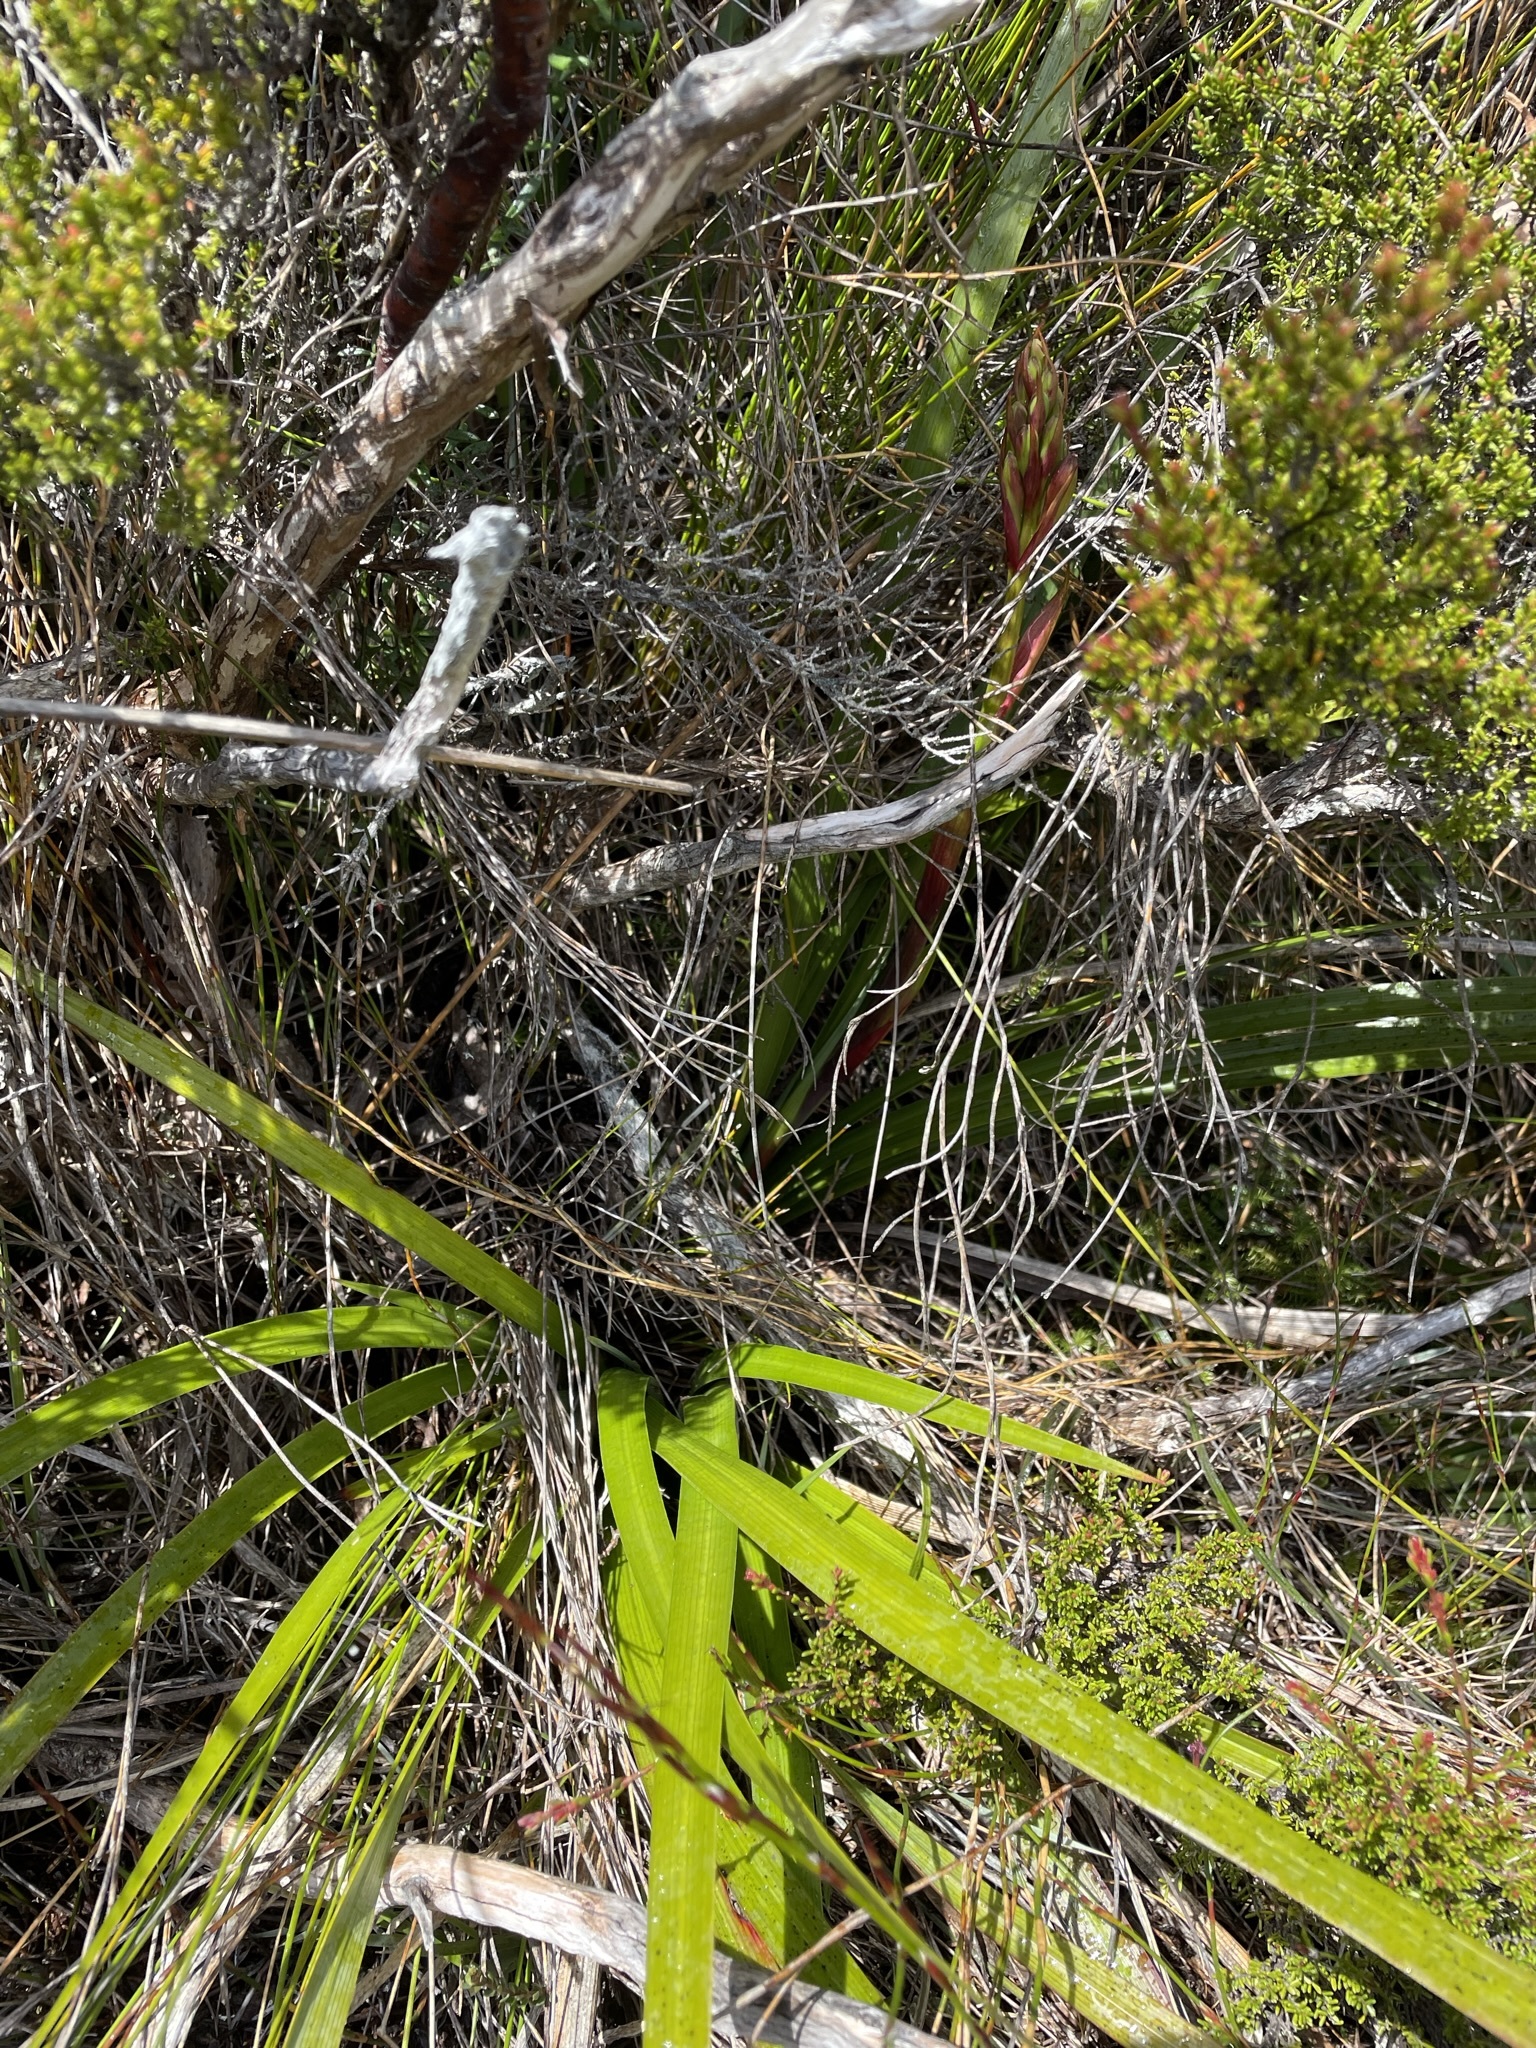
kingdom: Plantae
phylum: Tracheophyta
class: Liliopsida
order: Asparagales
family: Blandfordiaceae
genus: Blandfordia
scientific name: Blandfordia punicea
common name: Tasmanian christmas-bell
